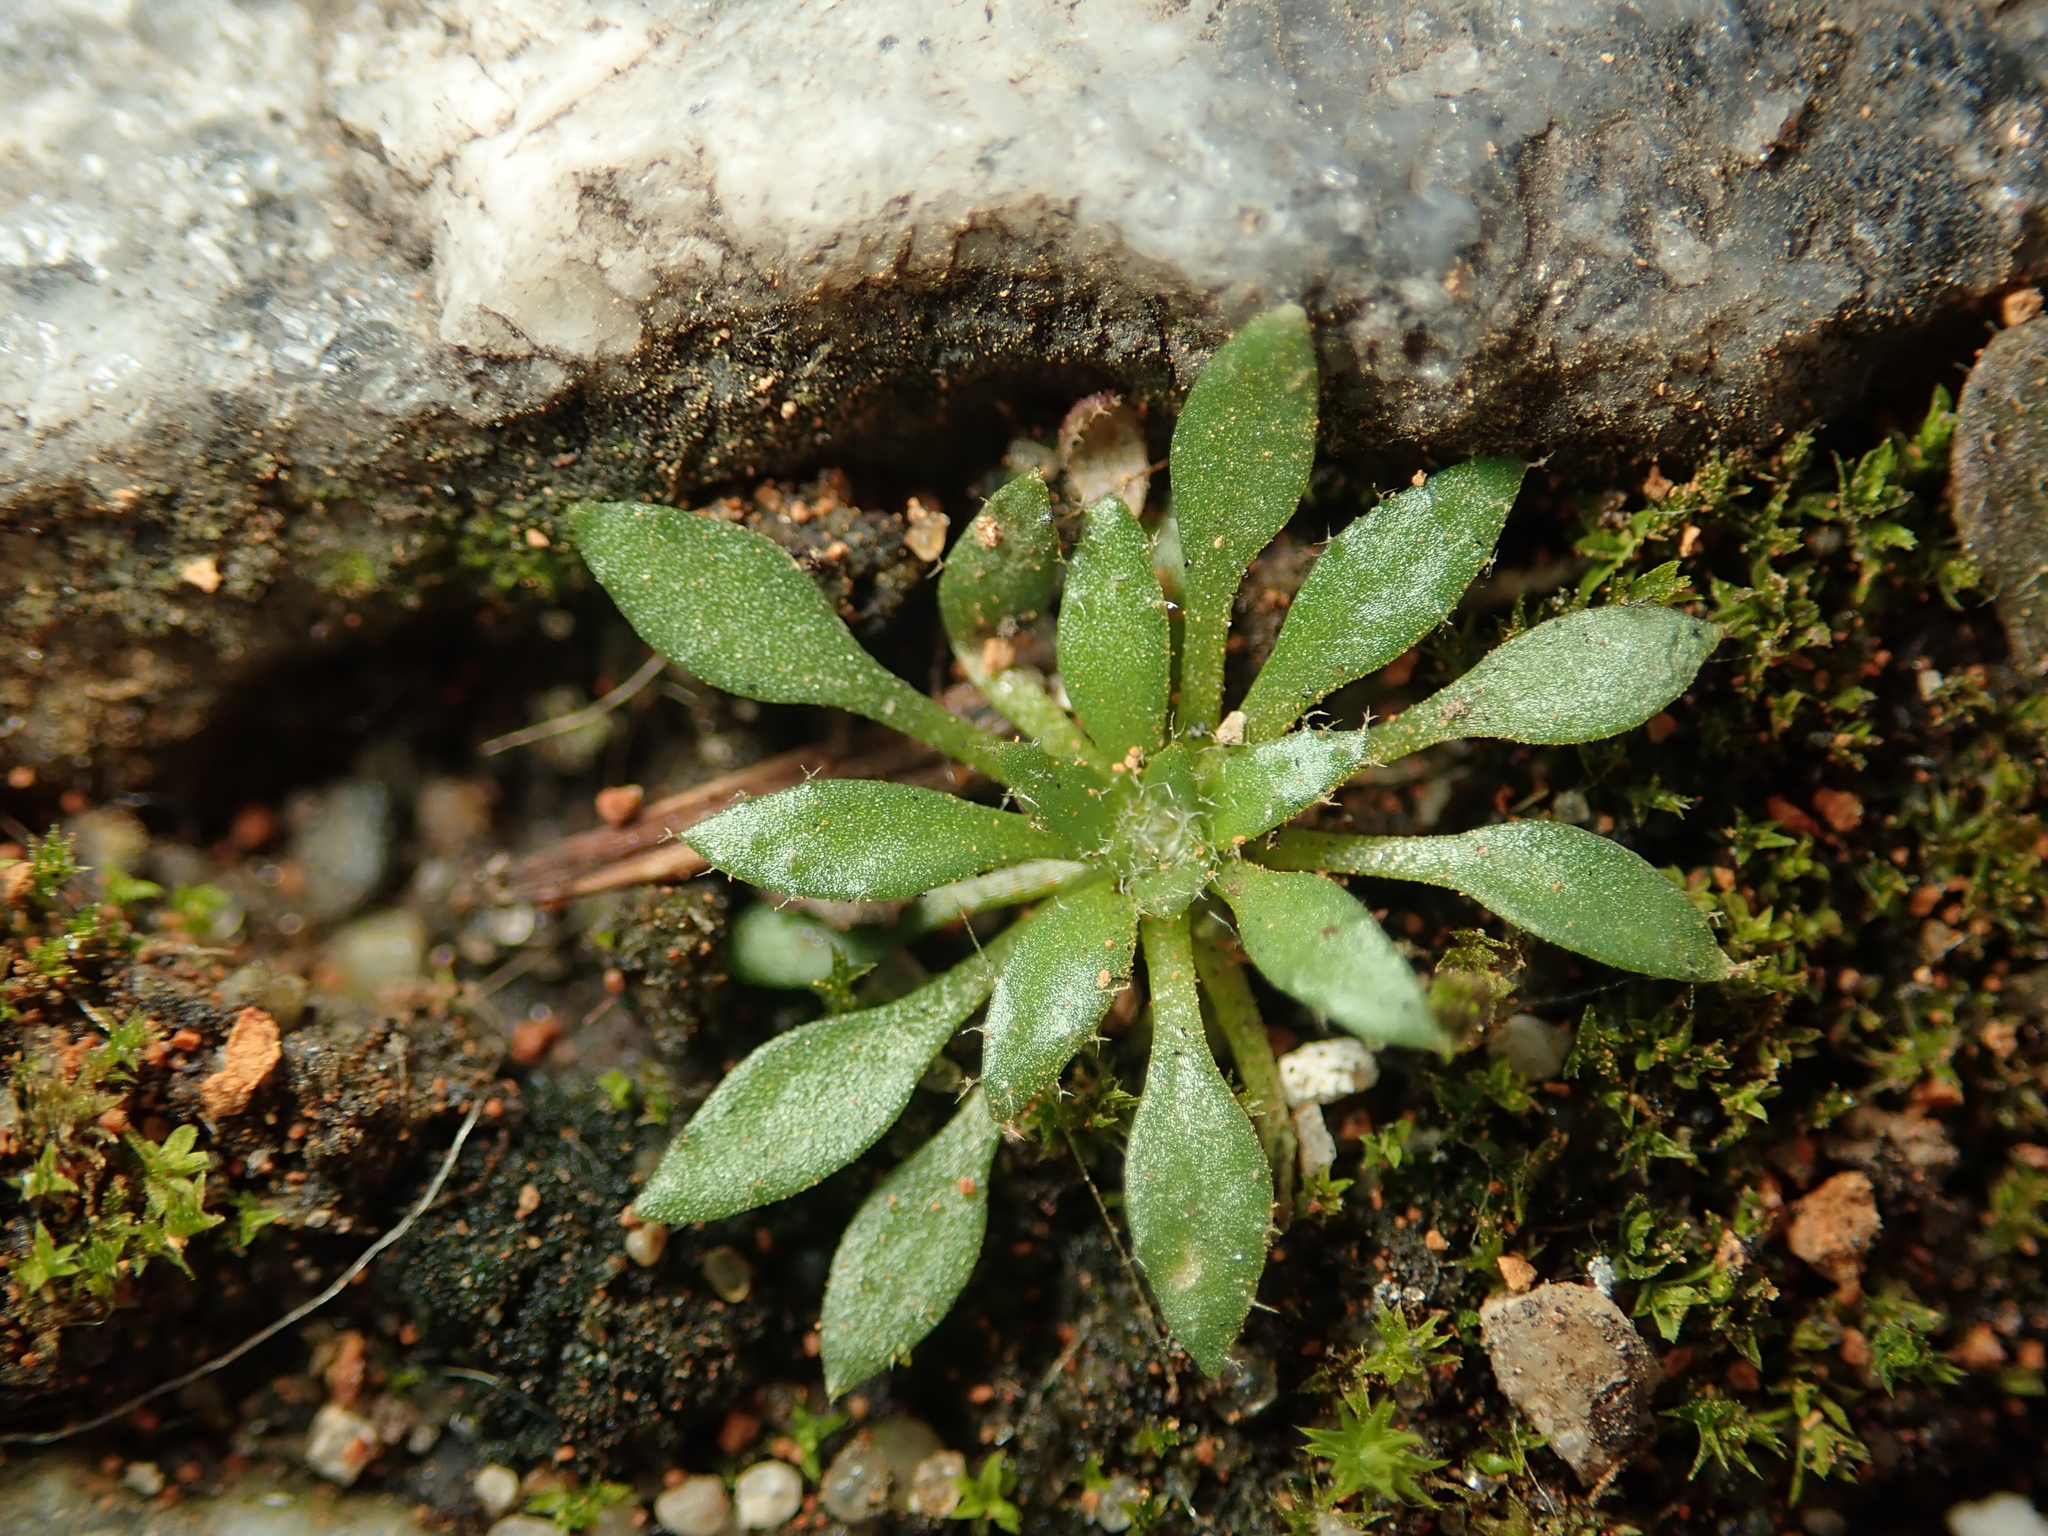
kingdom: Plantae
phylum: Tracheophyta
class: Magnoliopsida
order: Brassicales
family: Brassicaceae
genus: Draba
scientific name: Draba verna
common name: Spring draba
